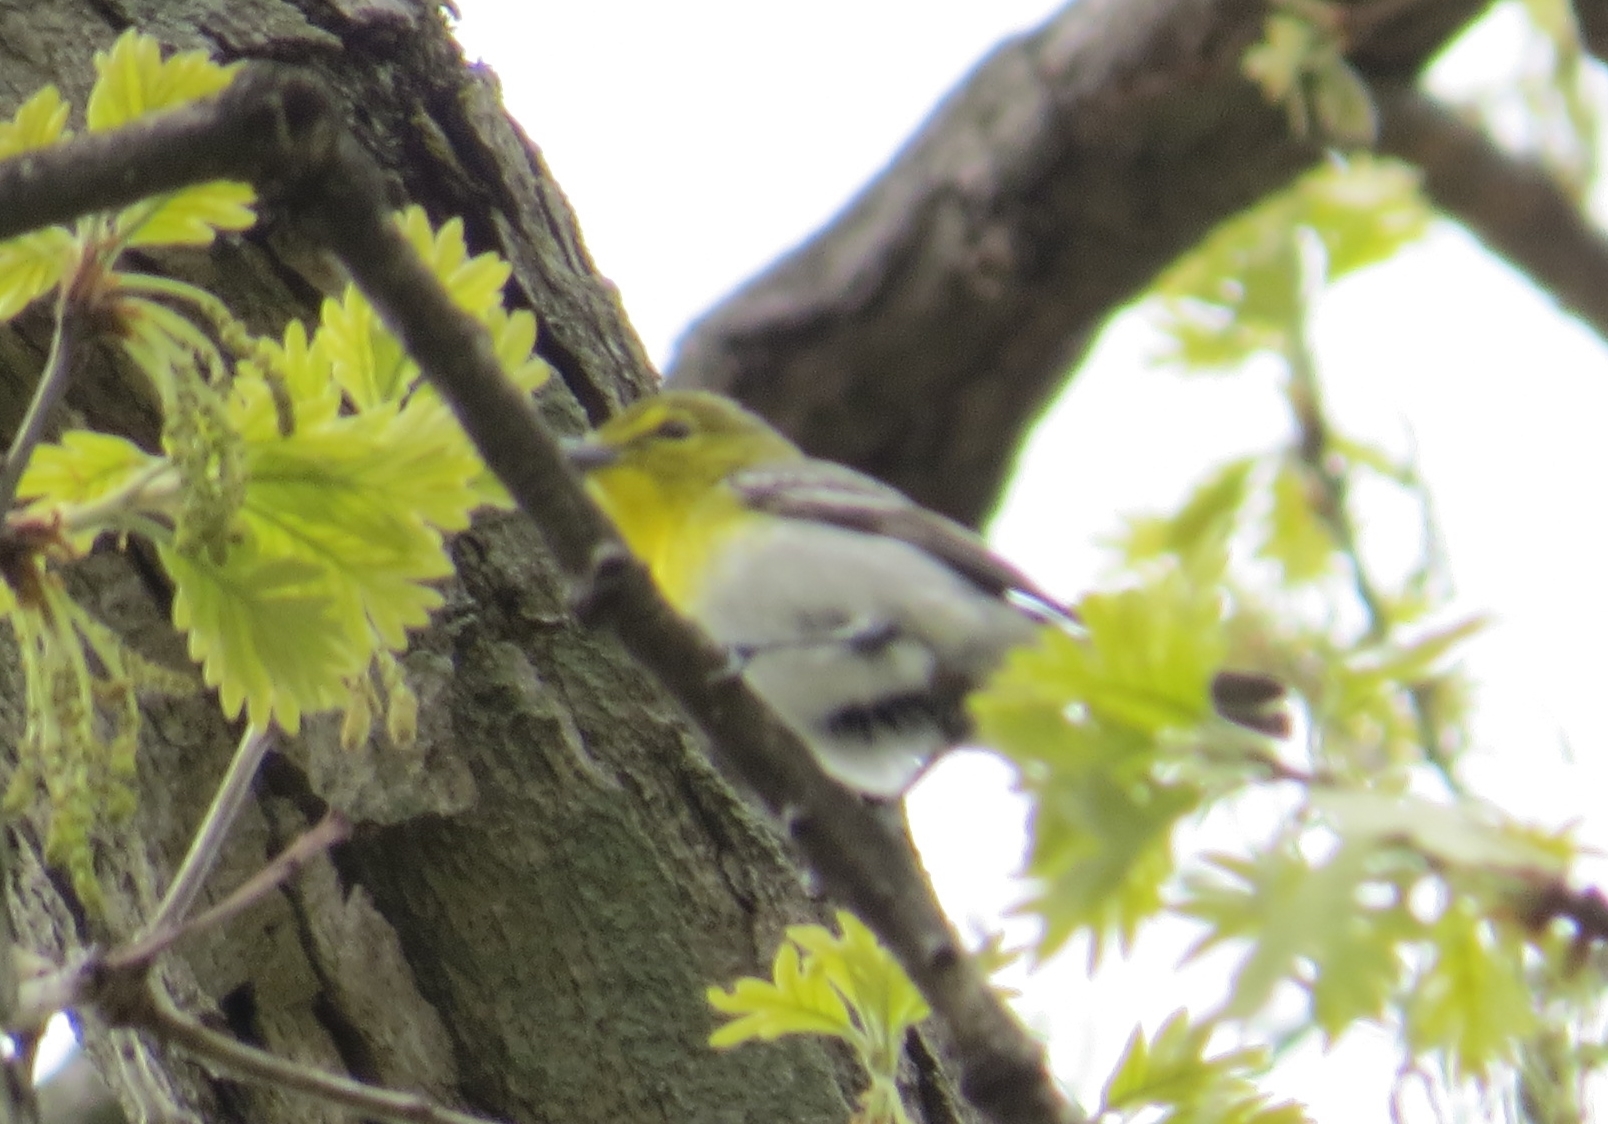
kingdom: Animalia
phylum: Chordata
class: Aves
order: Passeriformes
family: Vireonidae
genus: Vireo
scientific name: Vireo flavifrons
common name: Yellow-throated vireo
